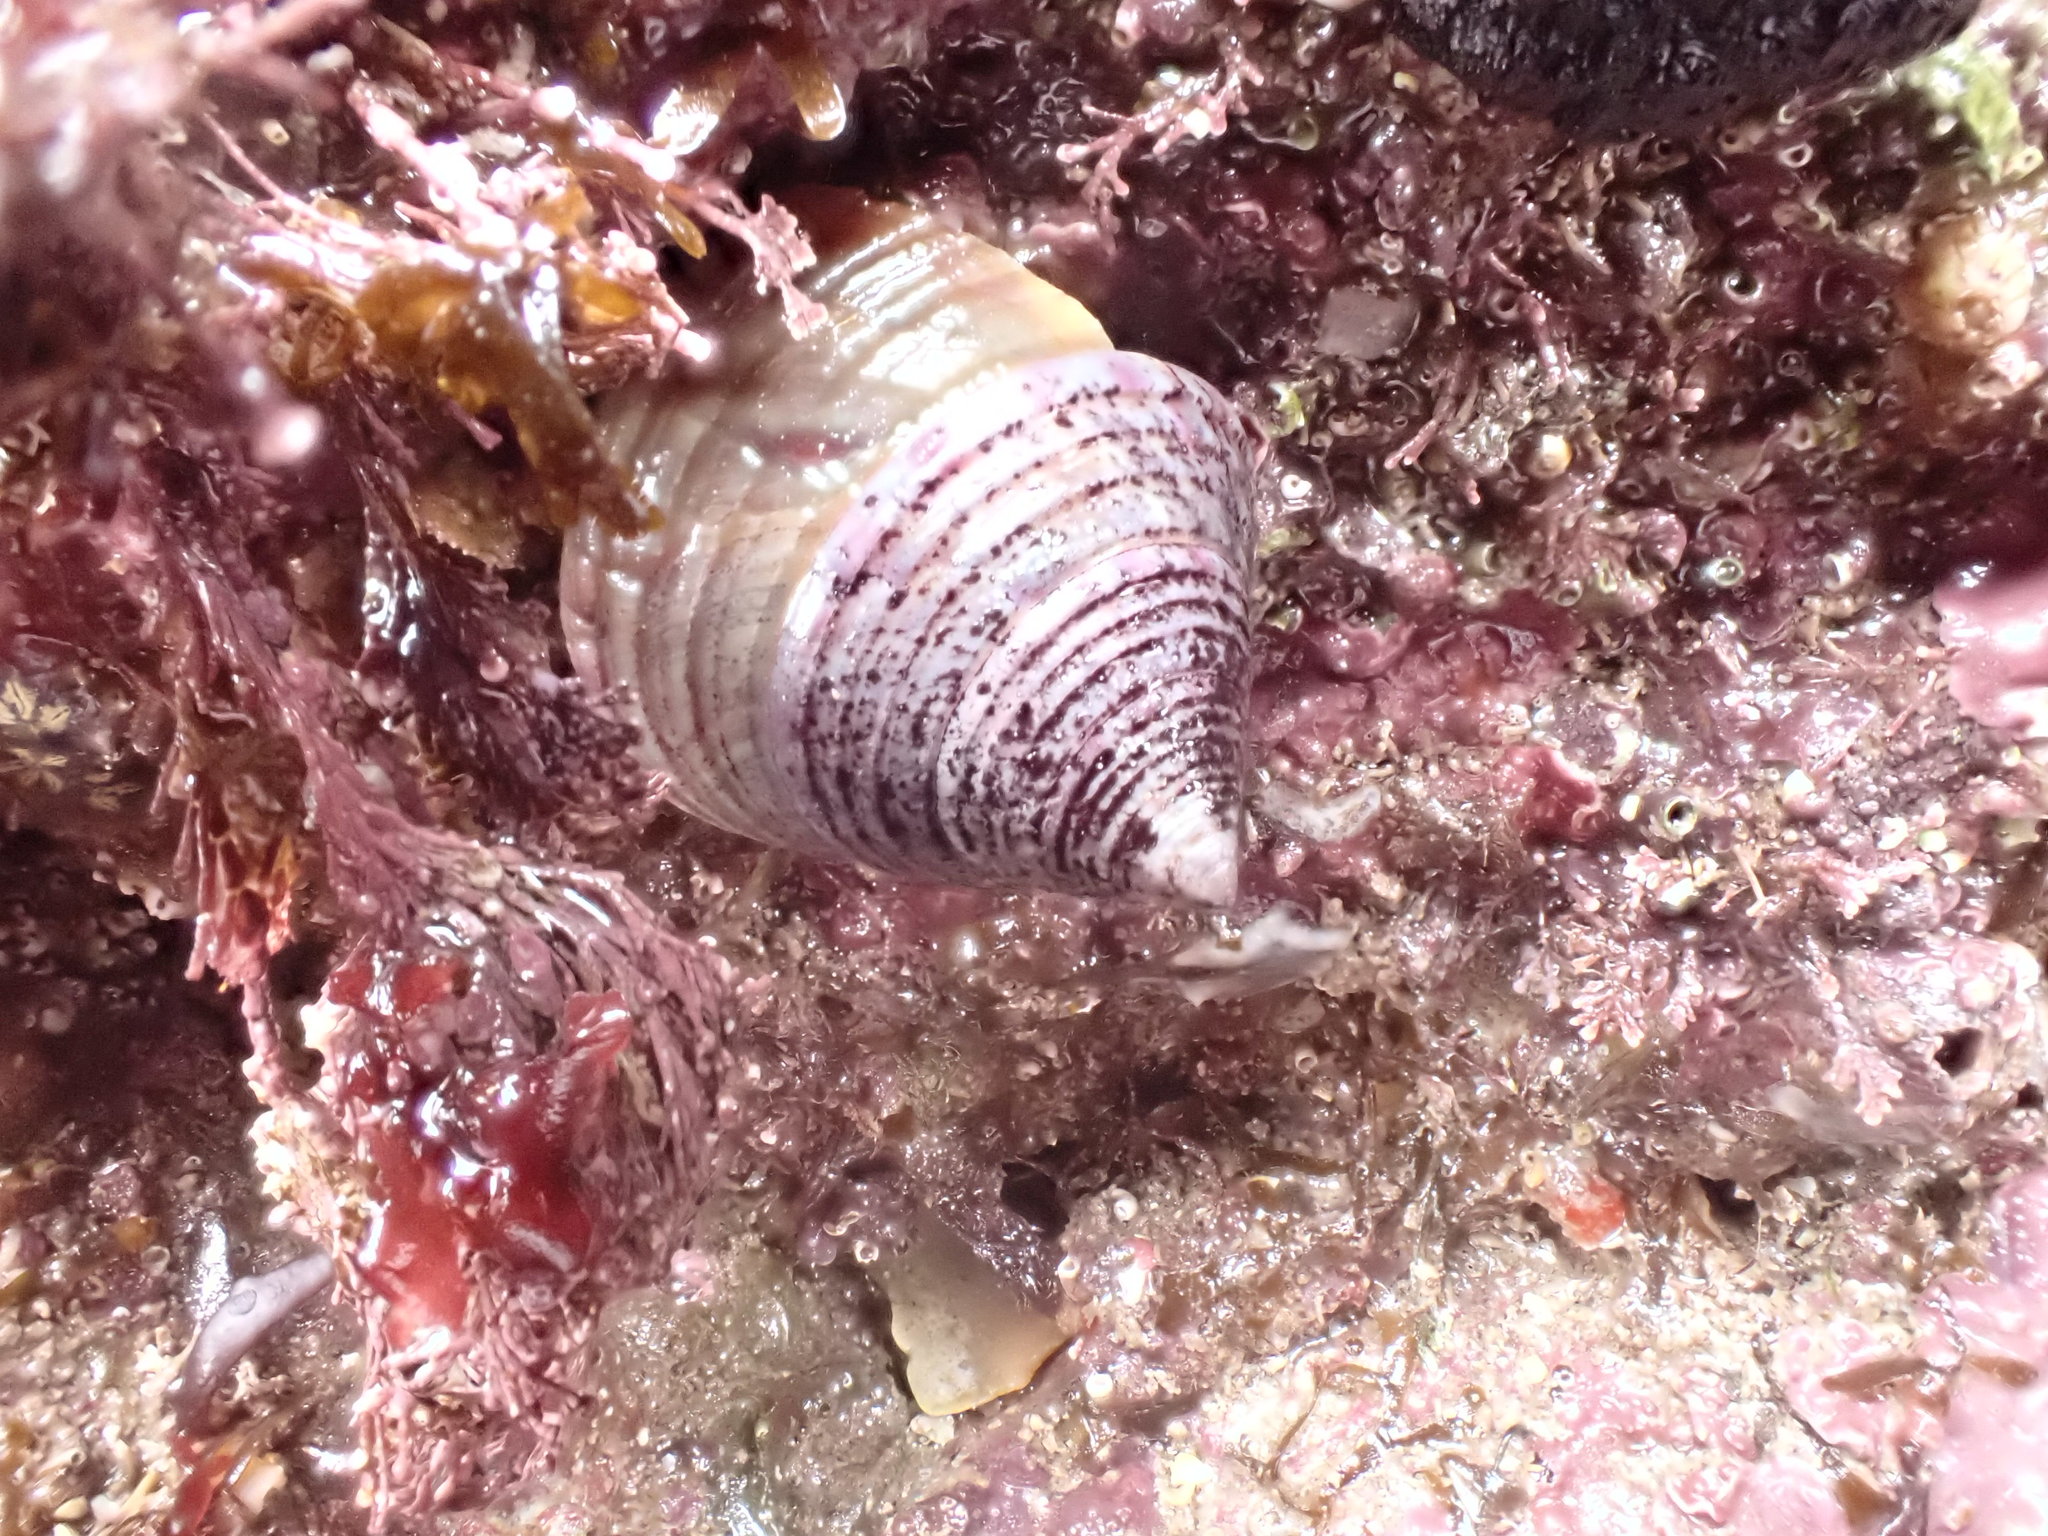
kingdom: Animalia
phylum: Mollusca
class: Gastropoda
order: Trochida
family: Calliostomatidae
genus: Calliostoma
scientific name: Calliostoma zizyphinum
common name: Painted top shell
